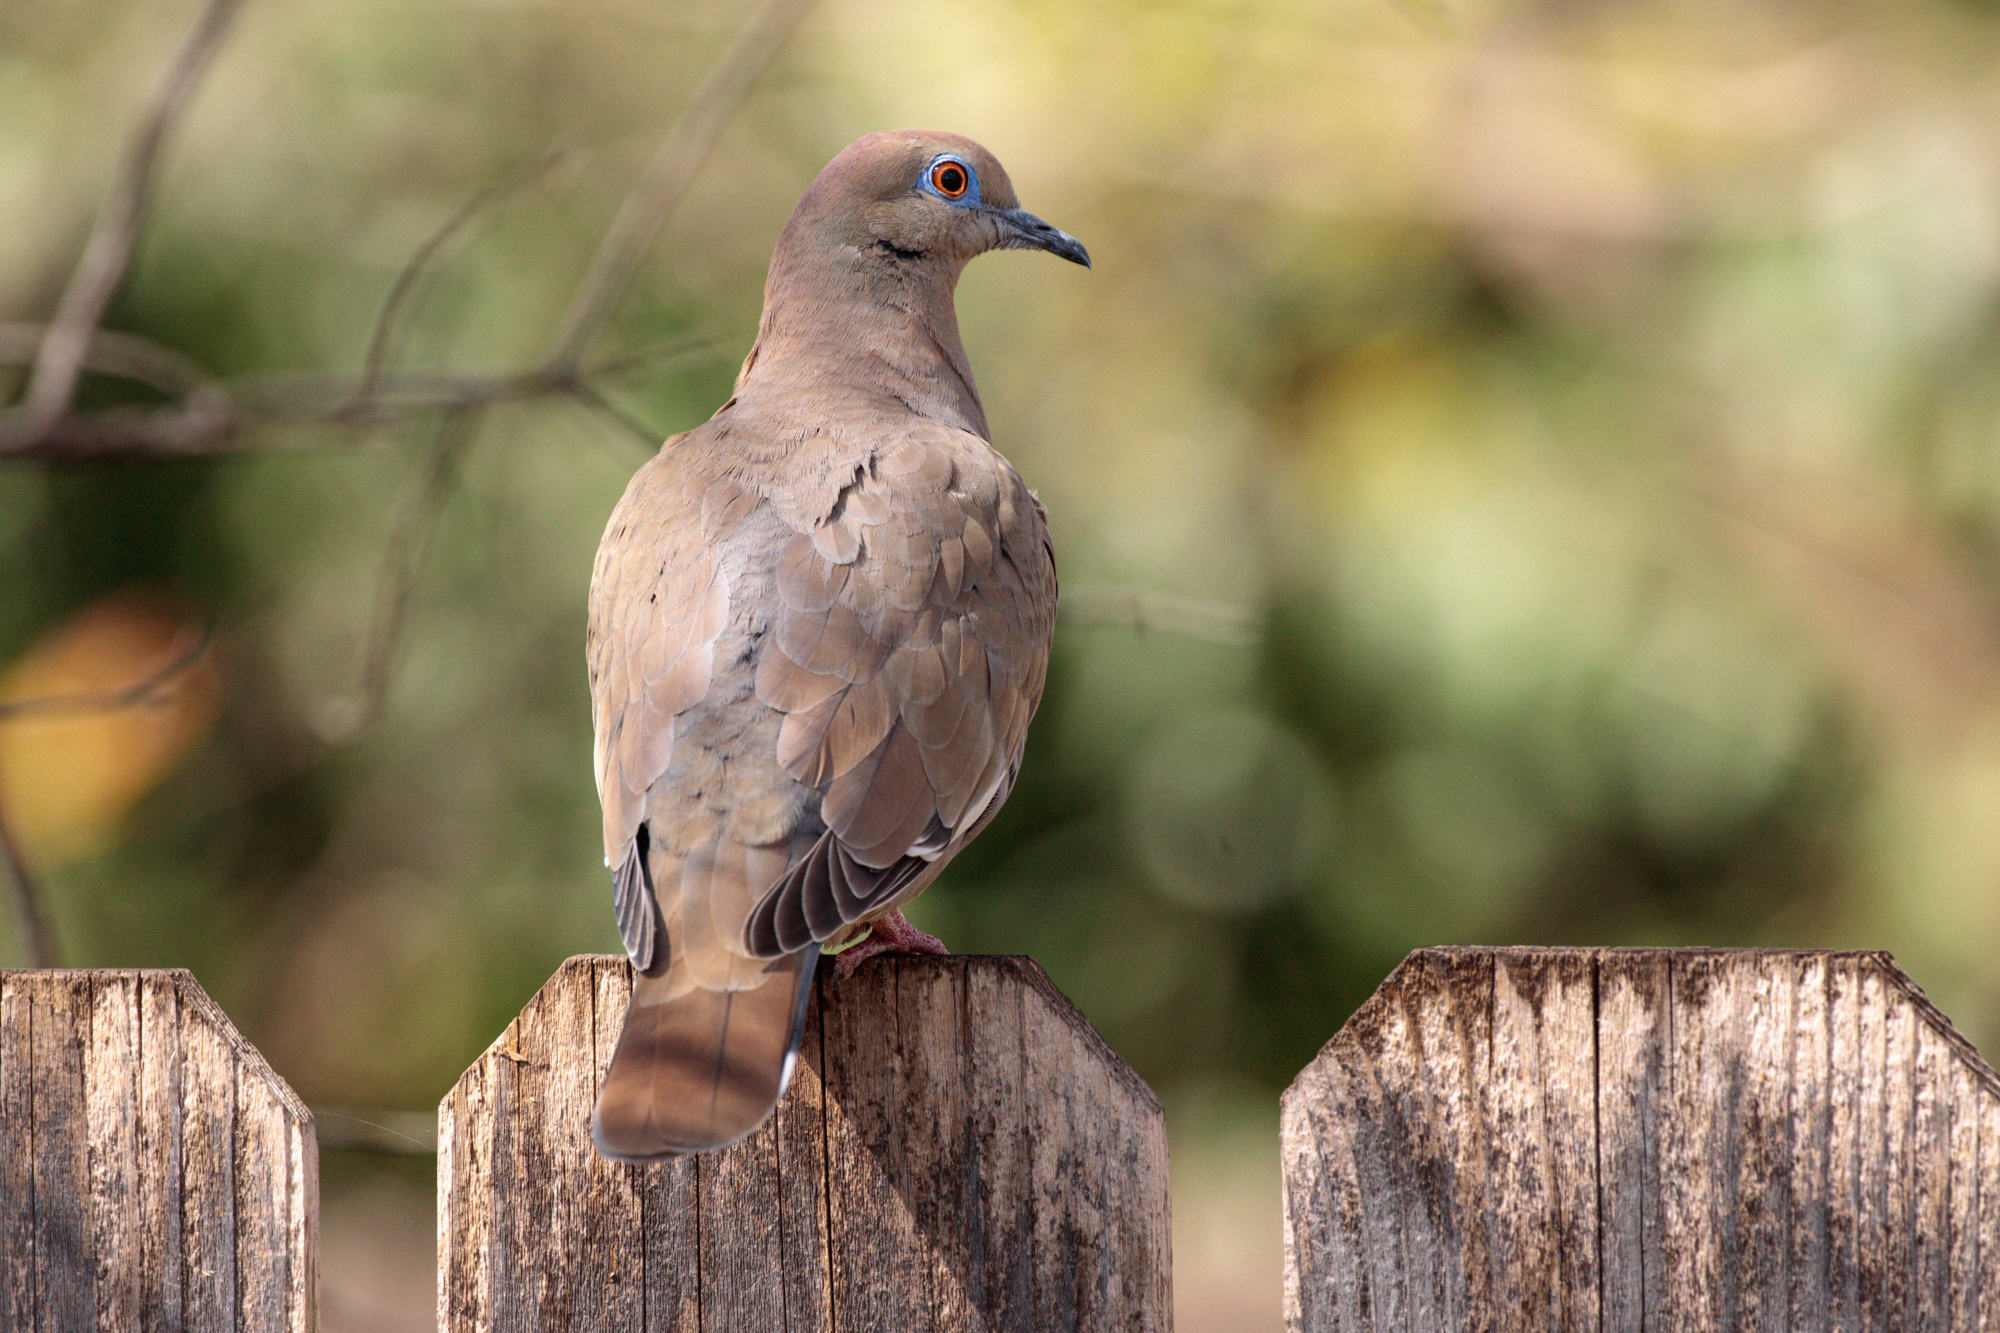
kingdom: Animalia
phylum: Chordata
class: Aves
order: Columbiformes
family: Columbidae
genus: Zenaida
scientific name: Zenaida asiatica
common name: White-winged dove
